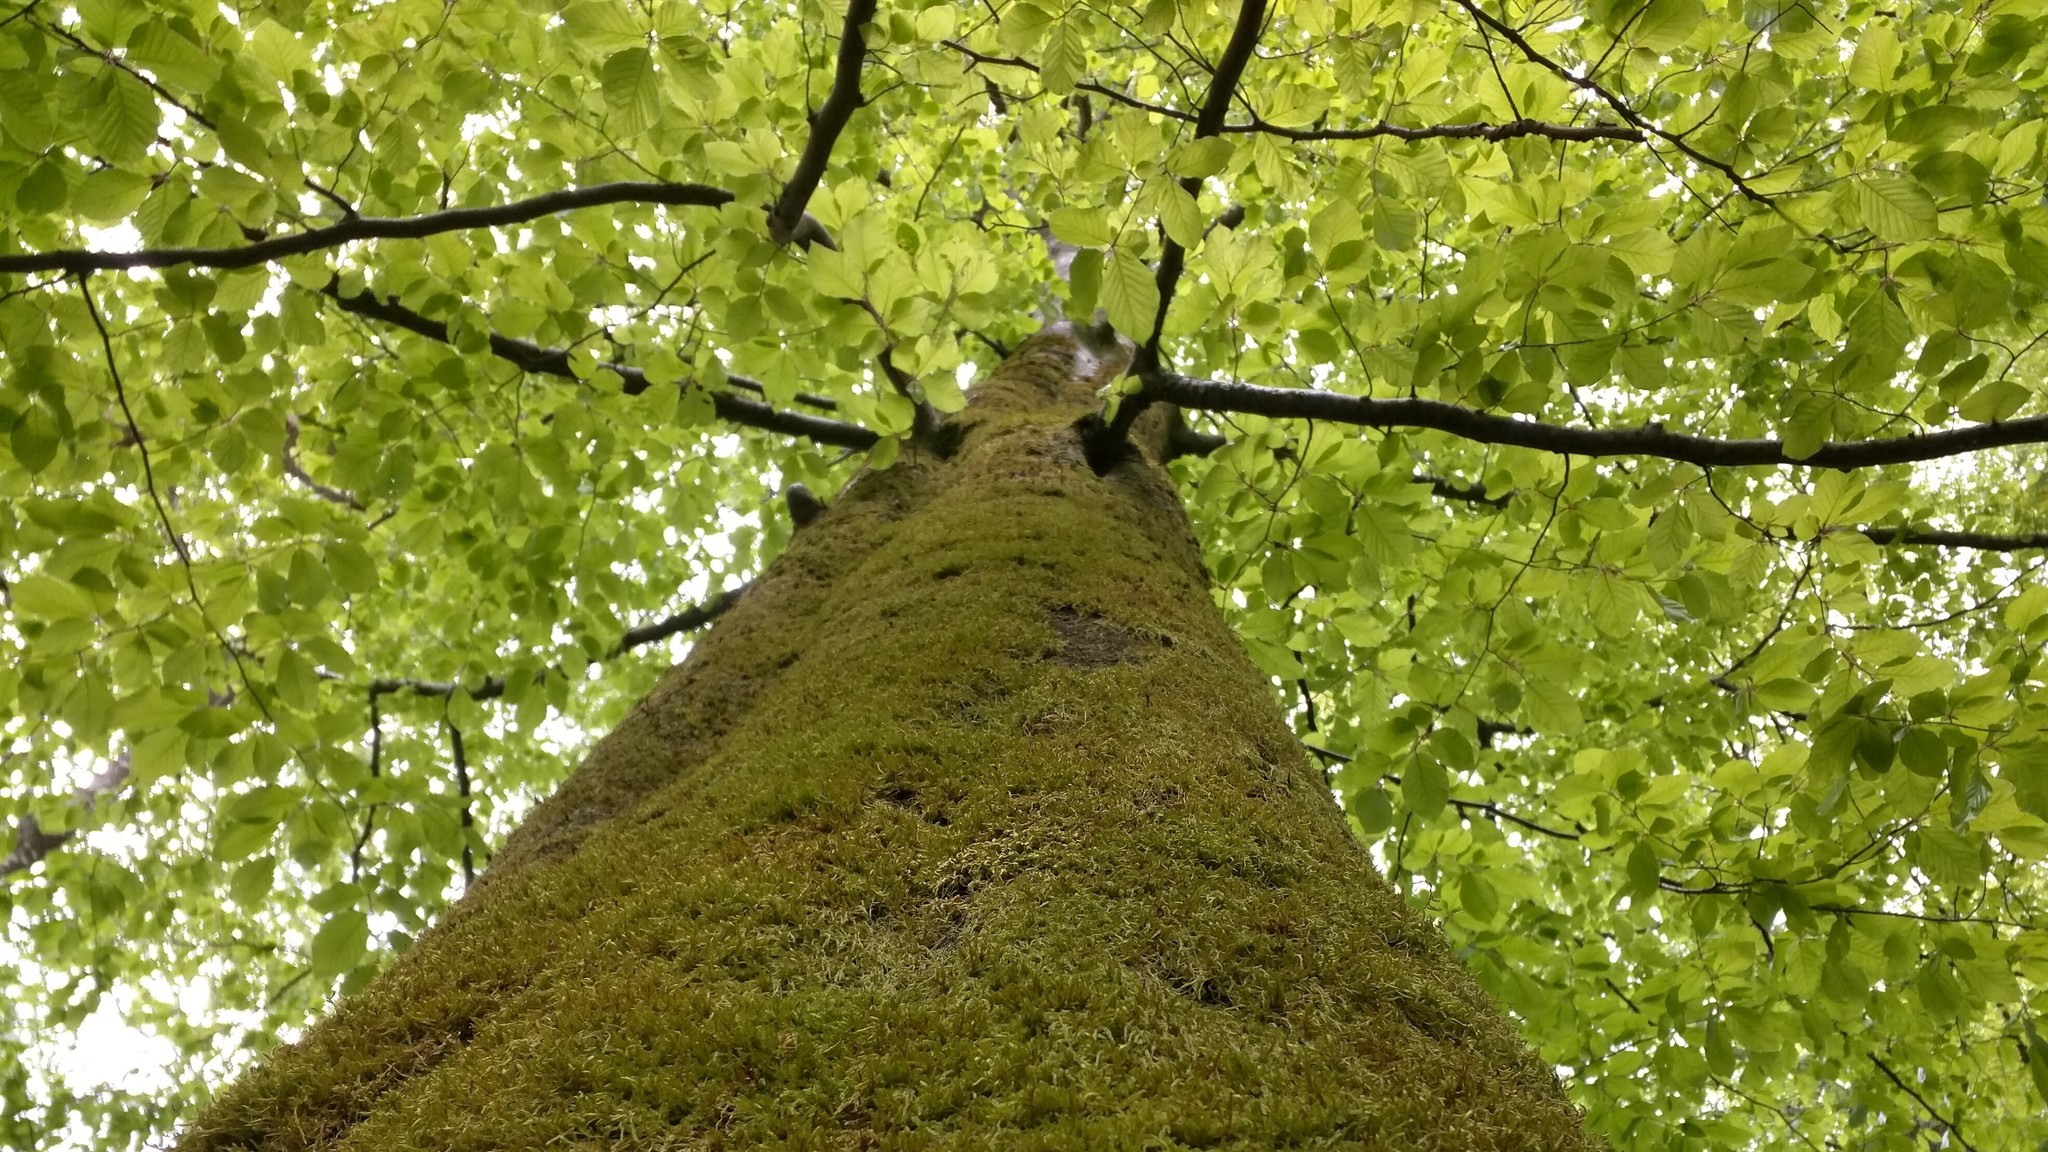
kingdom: Plantae
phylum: Tracheophyta
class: Magnoliopsida
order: Fagales
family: Fagaceae
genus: Fagus
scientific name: Fagus sylvatica
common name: Beech
